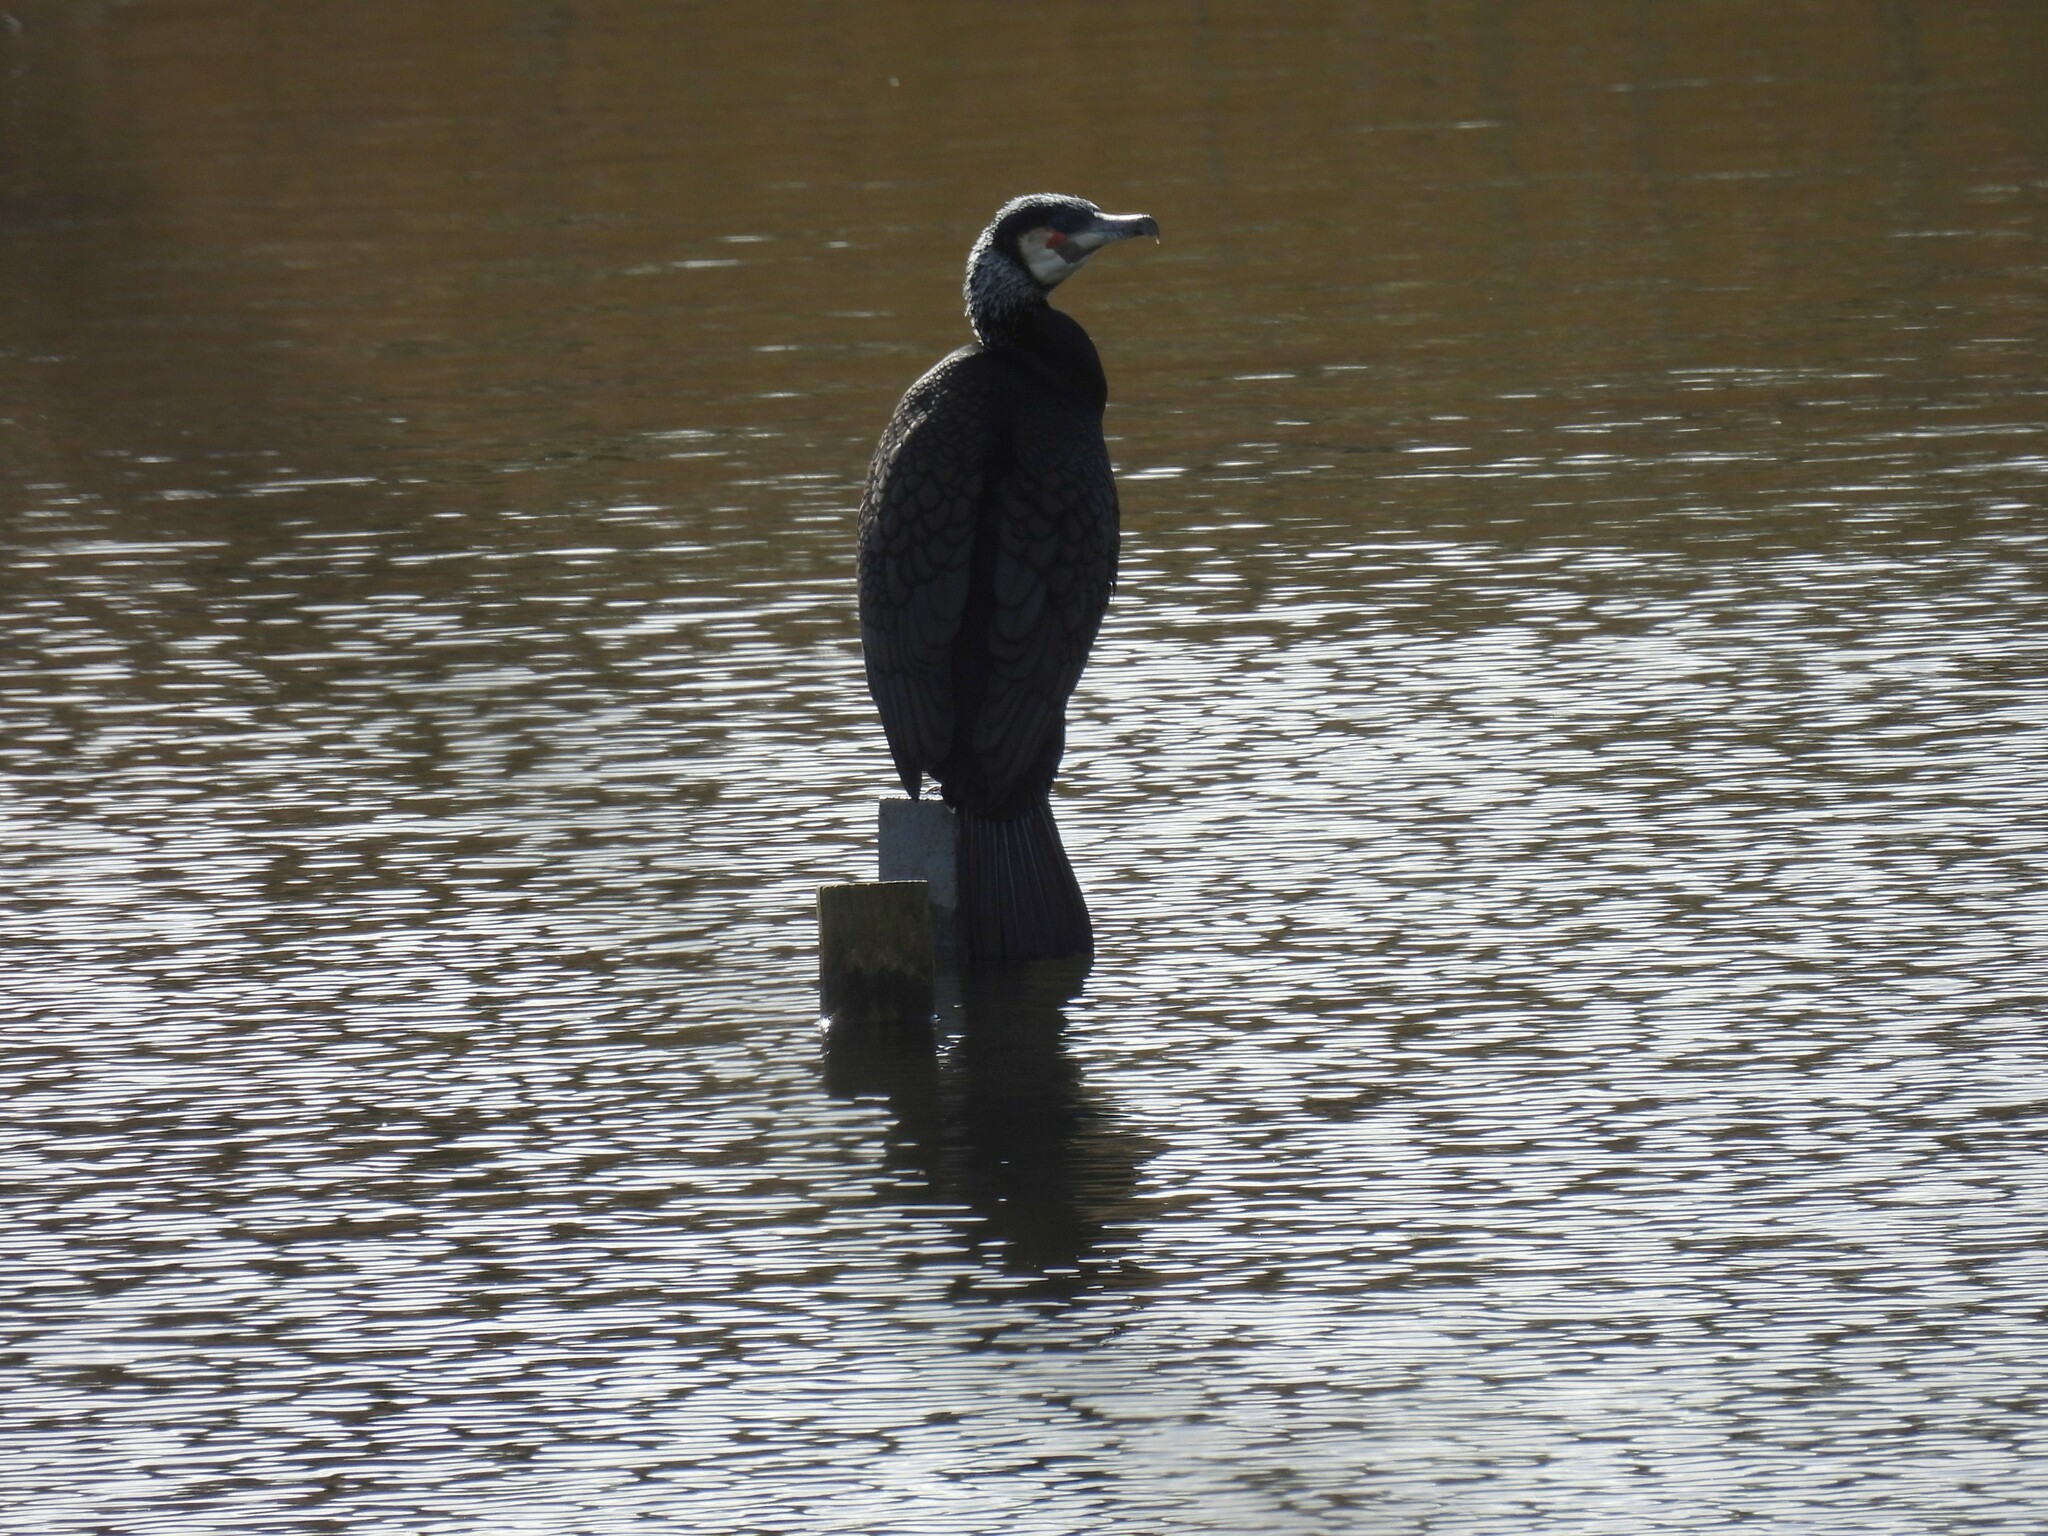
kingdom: Animalia
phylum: Chordata
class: Aves
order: Suliformes
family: Phalacrocoracidae
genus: Phalacrocorax
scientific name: Phalacrocorax carbo
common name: Great cormorant
